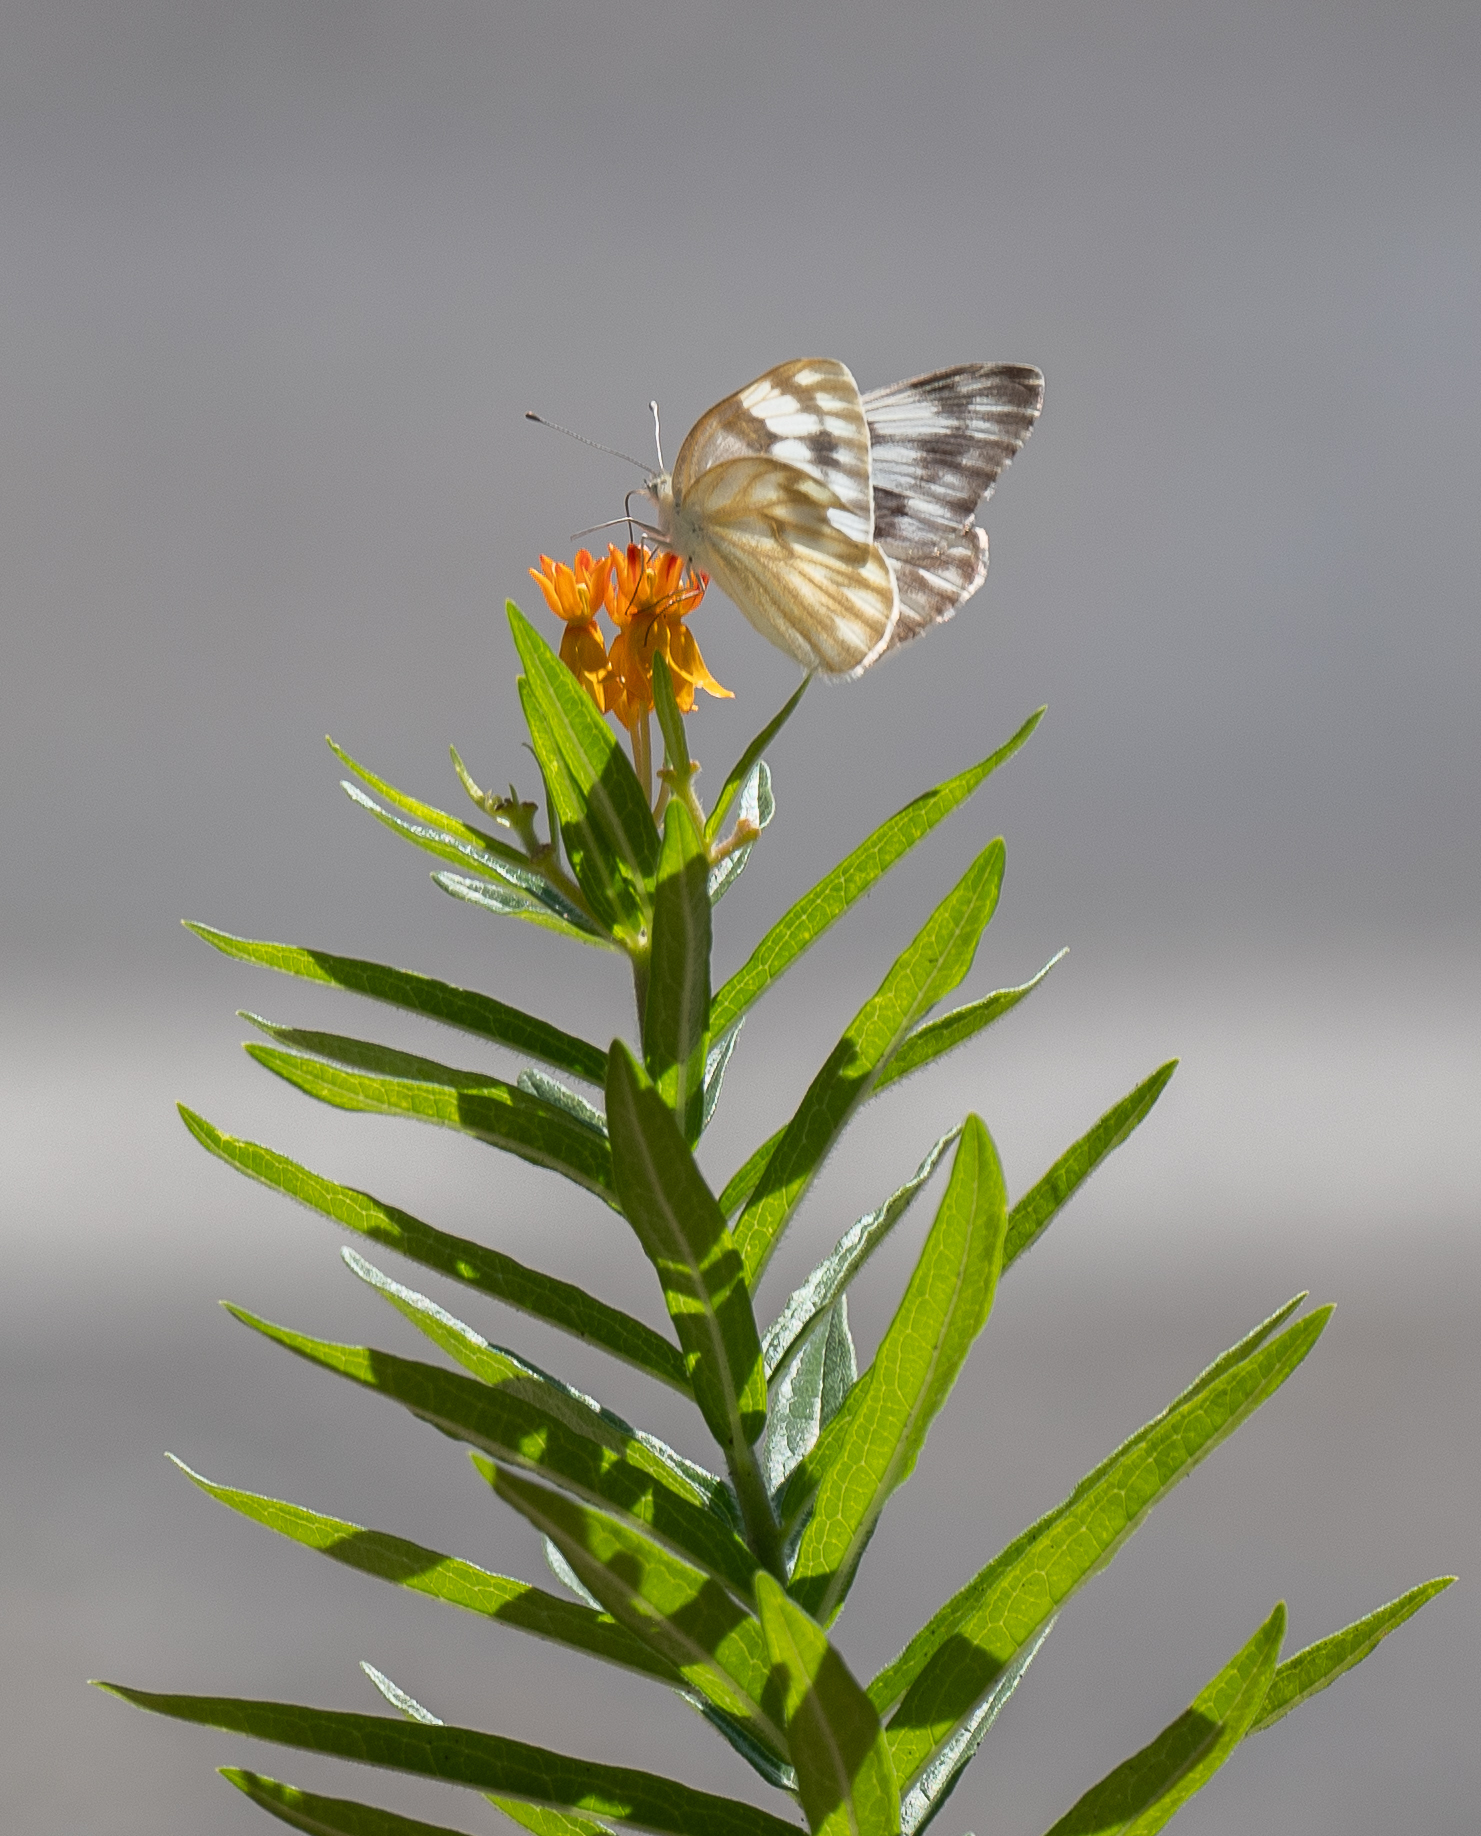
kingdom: Plantae
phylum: Tracheophyta
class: Magnoliopsida
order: Gentianales
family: Apocynaceae
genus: Asclepias
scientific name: Asclepias tuberosa
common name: Butterfly milkweed
